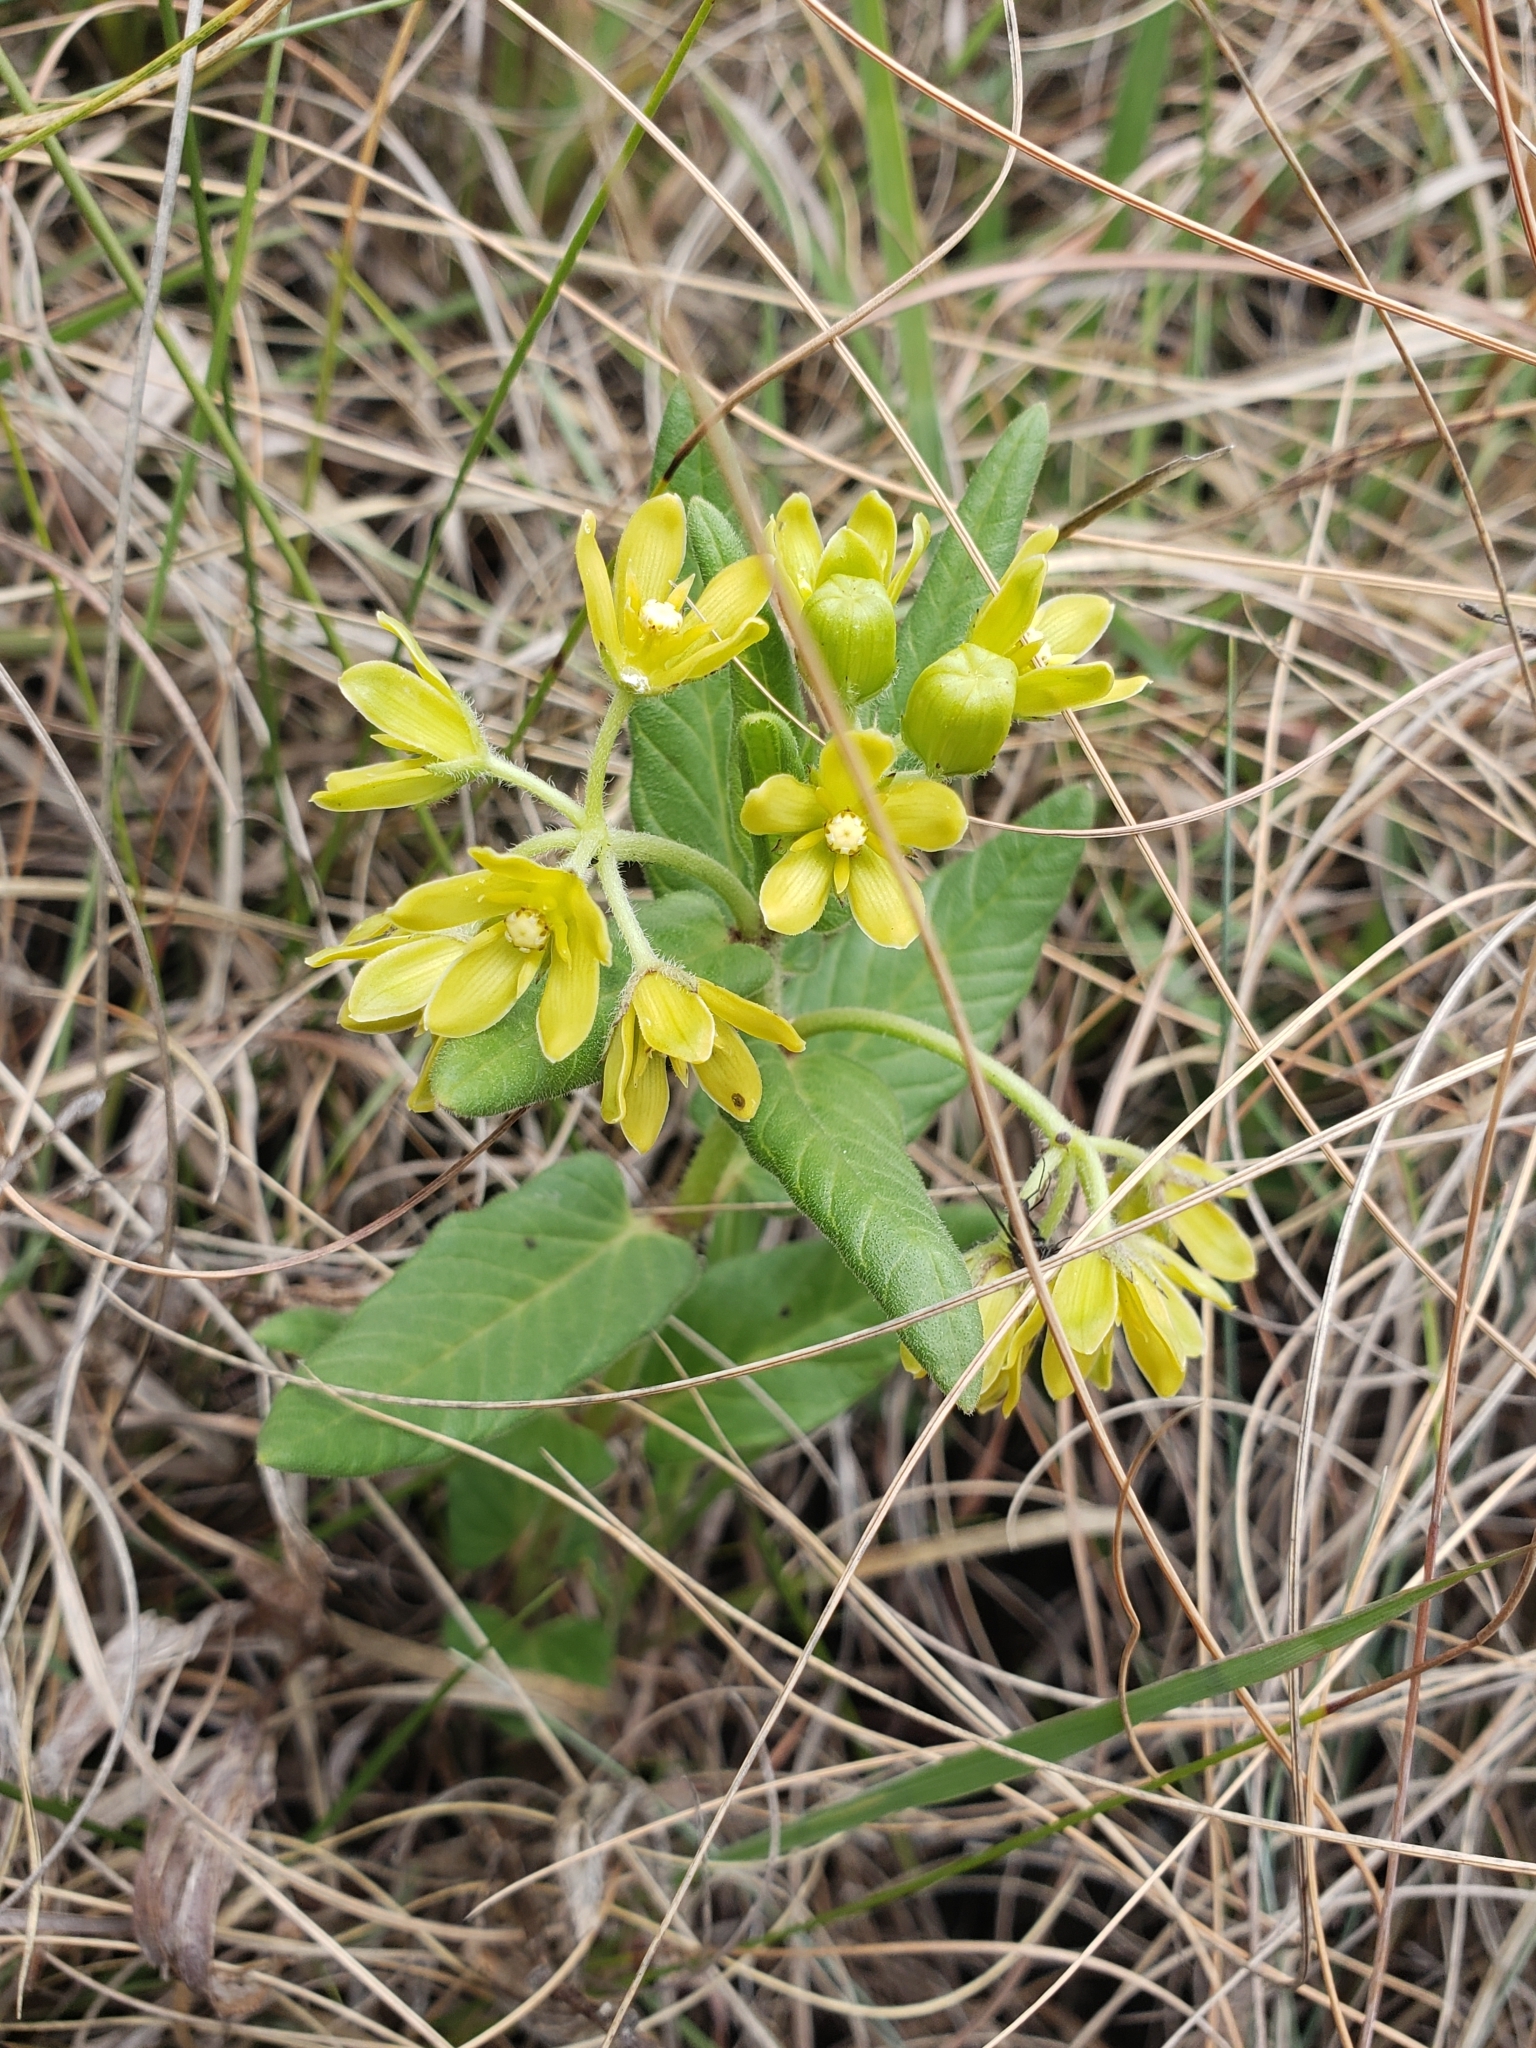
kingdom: Plantae
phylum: Tracheophyta
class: Magnoliopsida
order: Gentianales
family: Apocynaceae
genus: Schizoglossum
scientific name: Schizoglossum flavum
